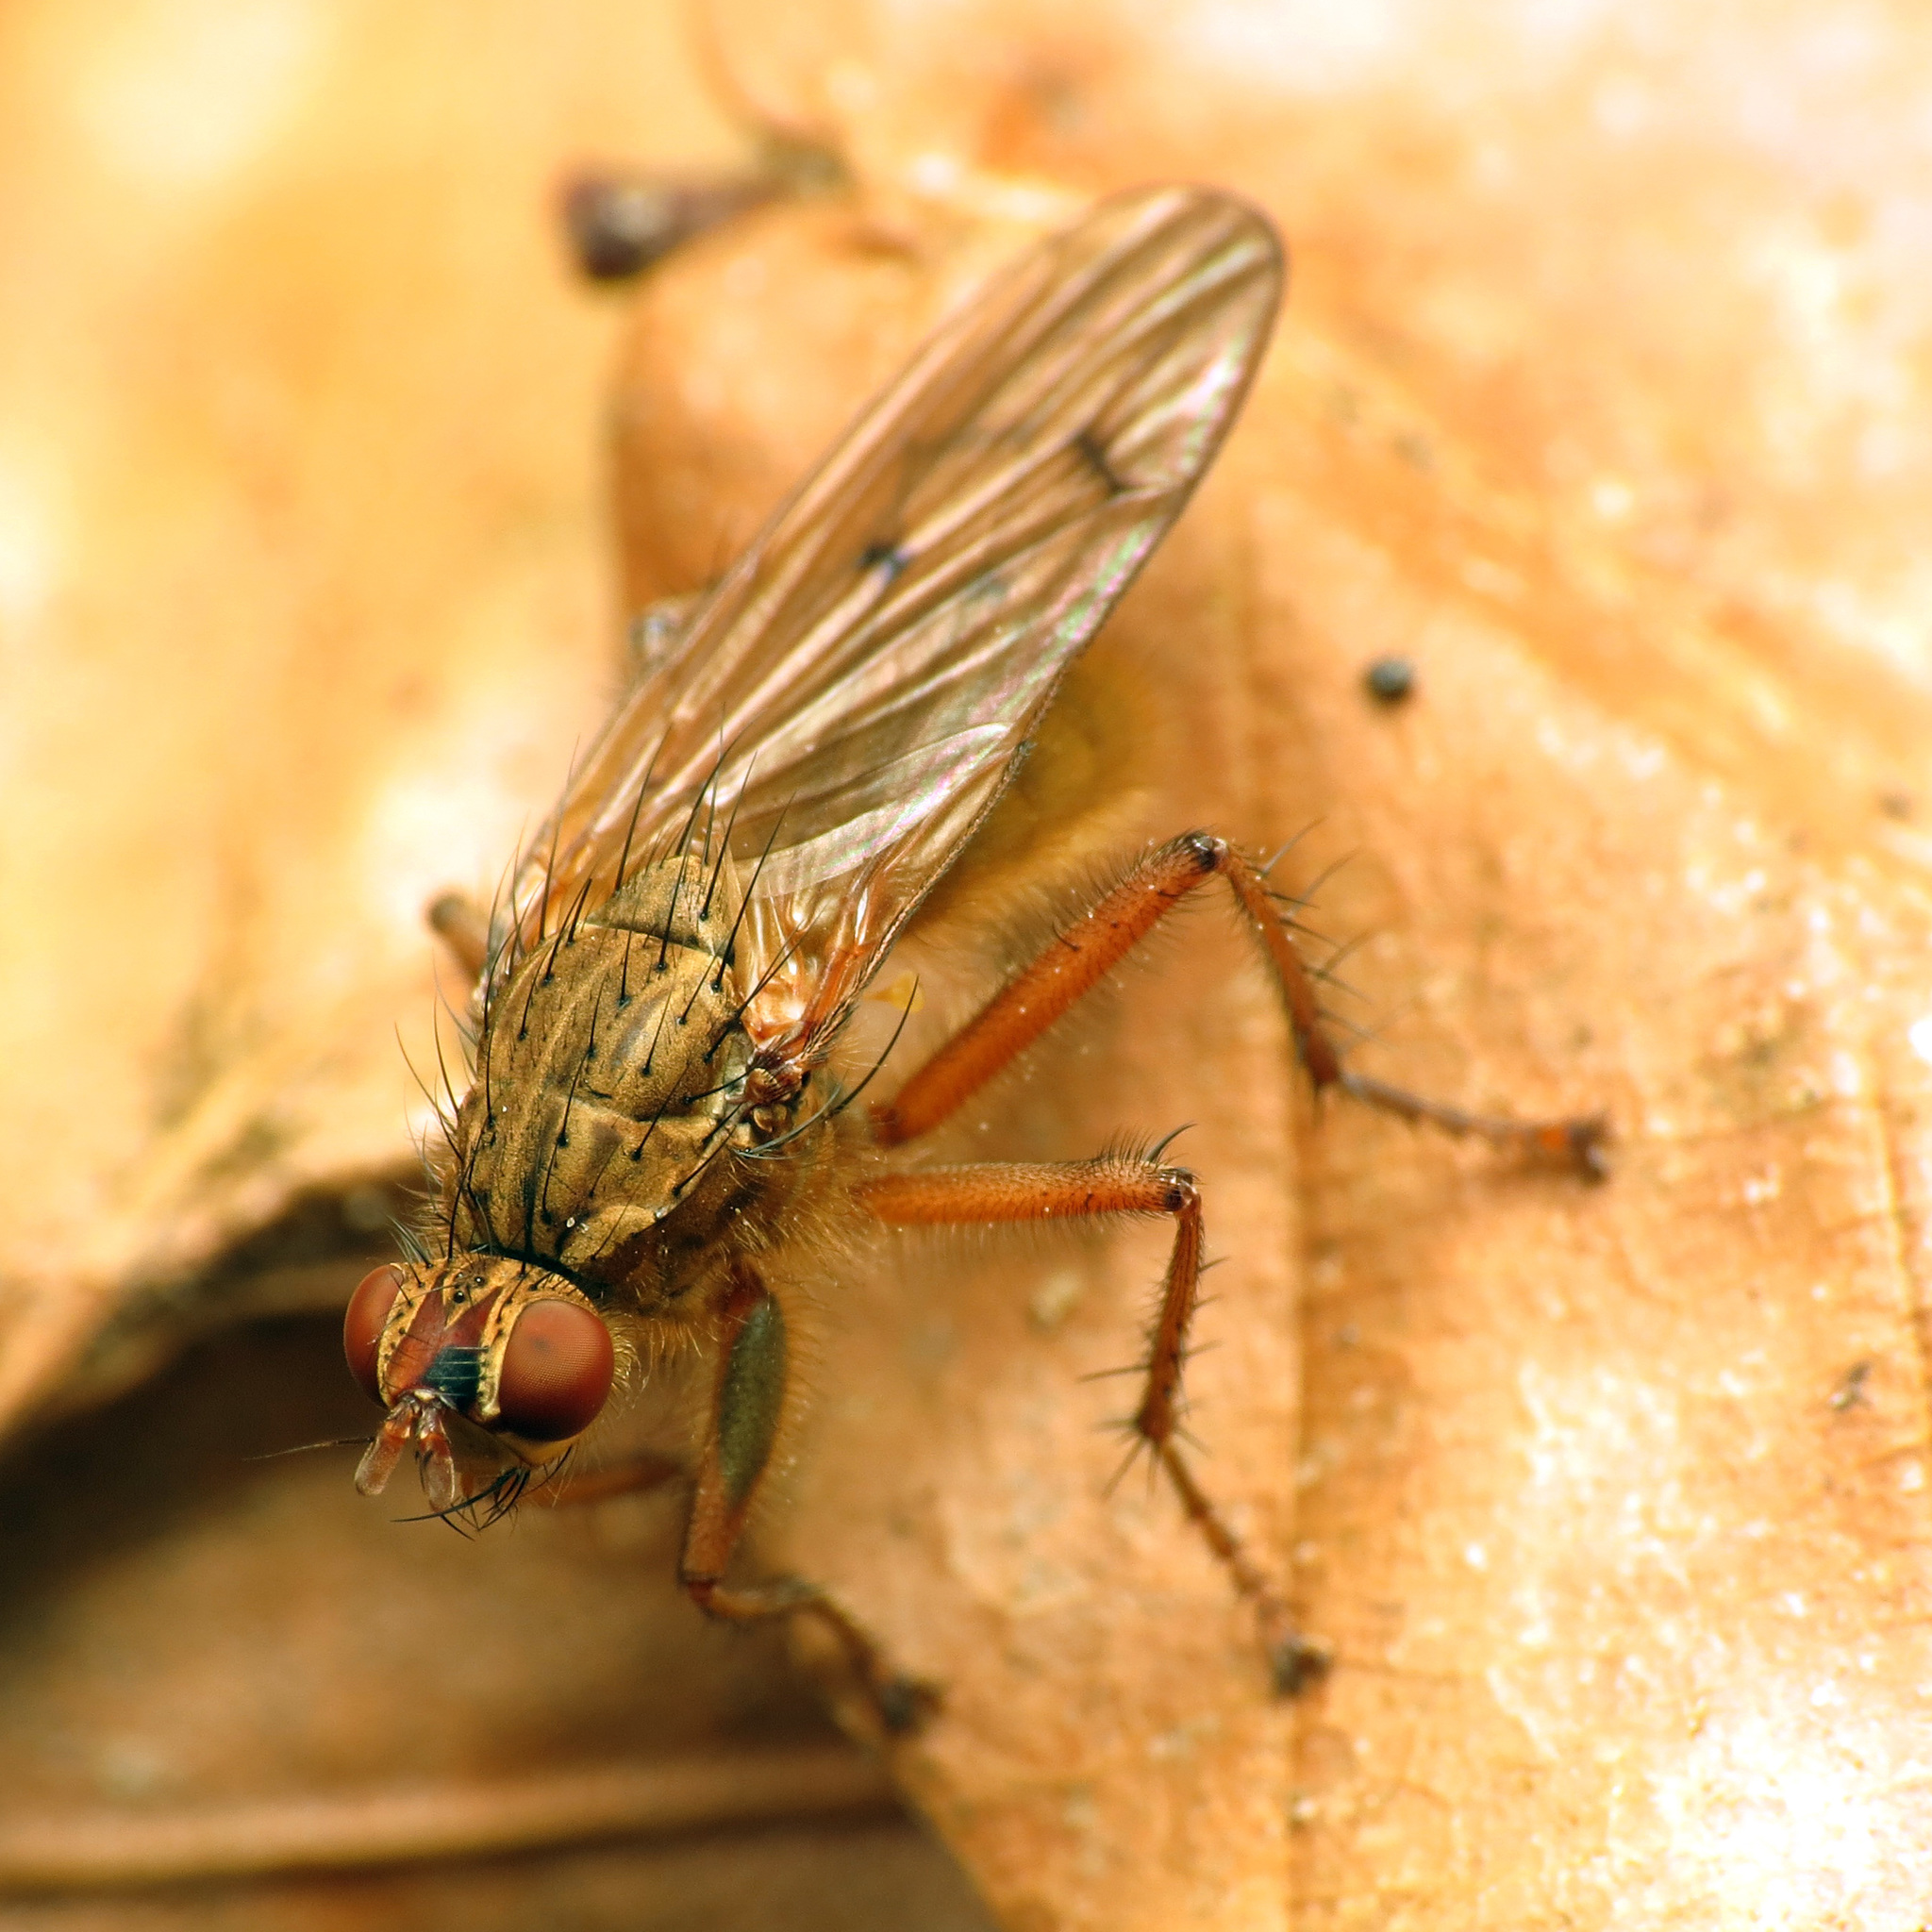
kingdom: Animalia
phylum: Arthropoda
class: Insecta
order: Diptera
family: Scathophagidae
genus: Scathophaga
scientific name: Scathophaga furcata
